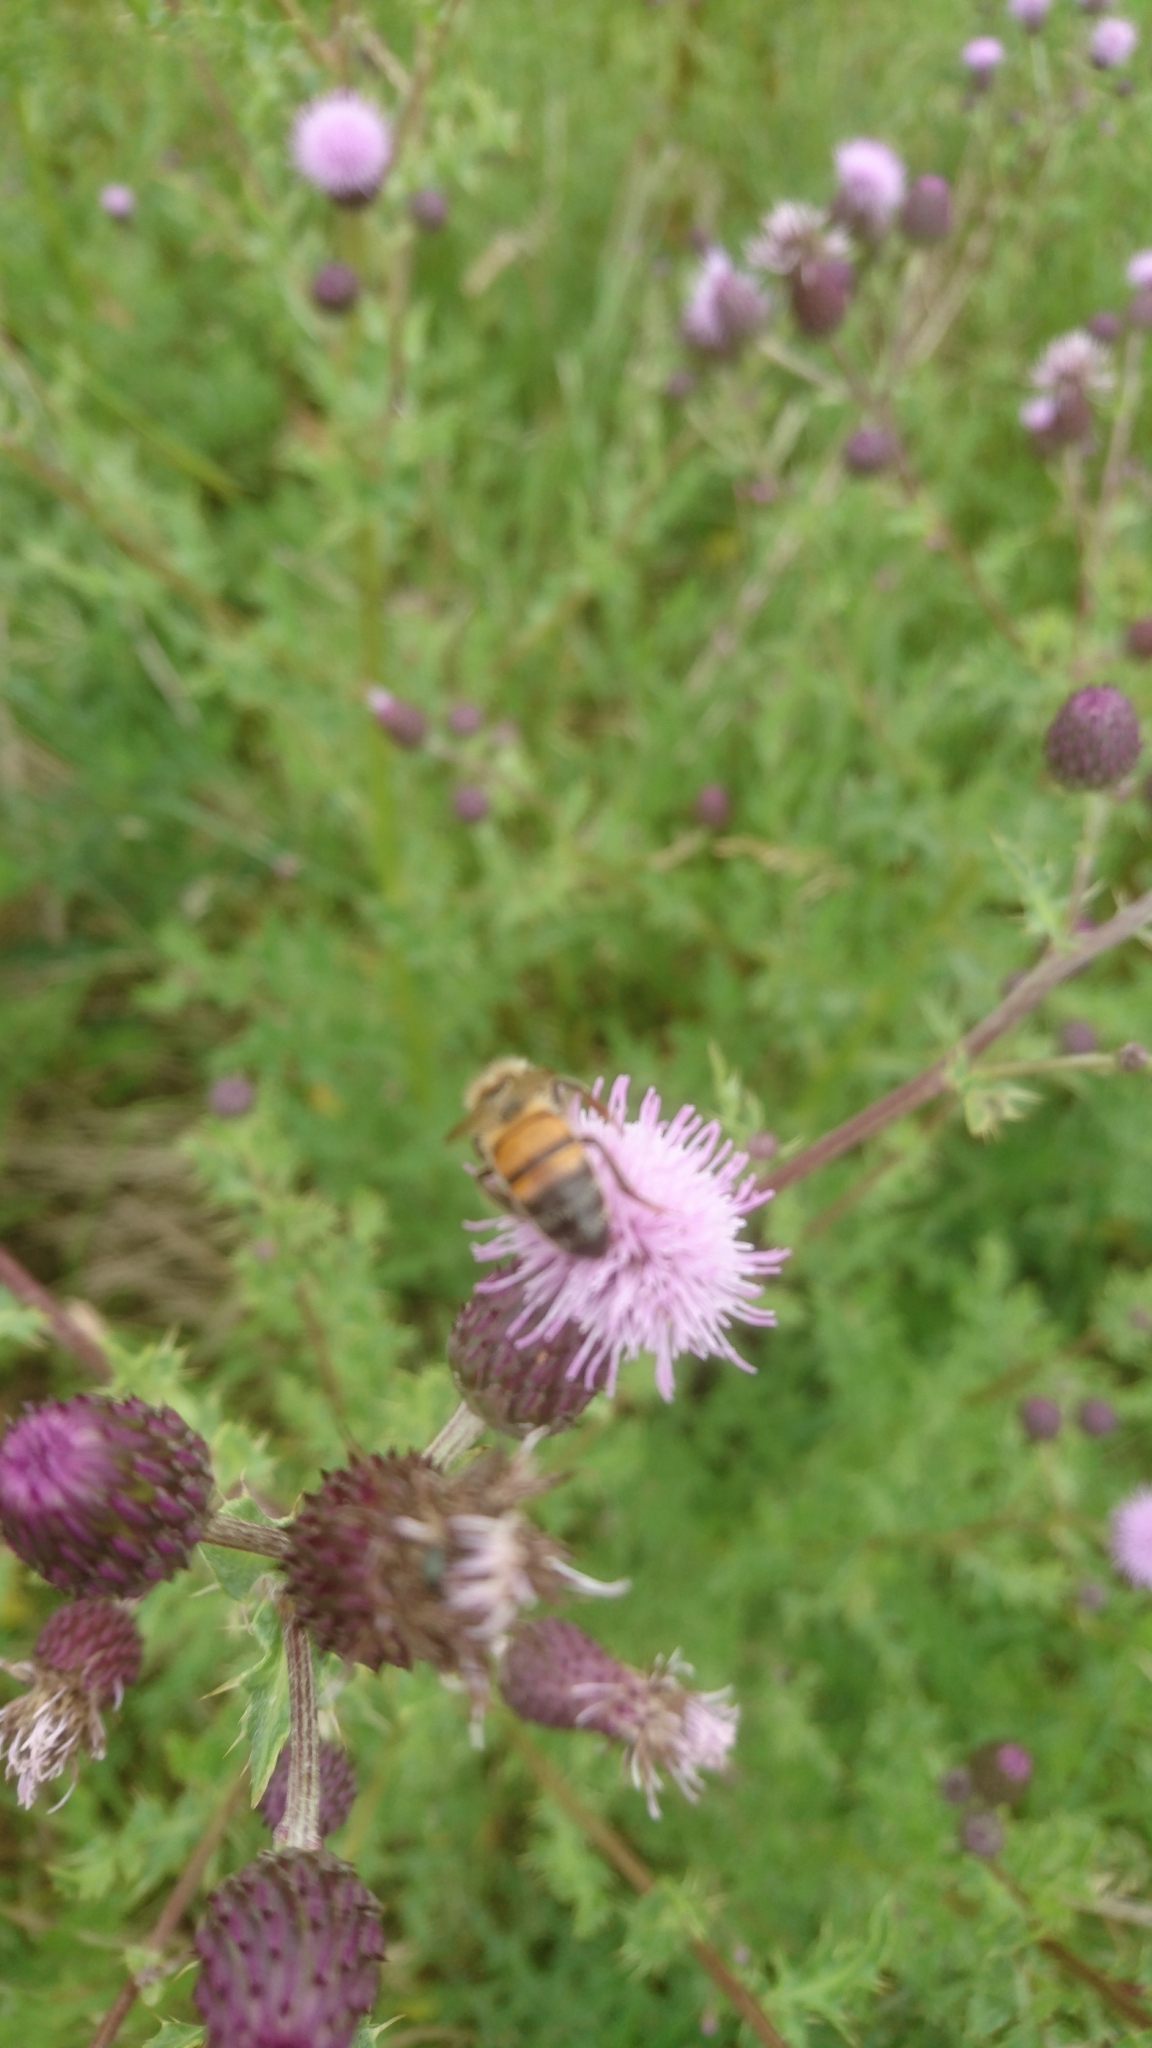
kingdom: Animalia
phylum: Arthropoda
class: Insecta
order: Hymenoptera
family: Apidae
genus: Apis
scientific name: Apis mellifera
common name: Honey bee
